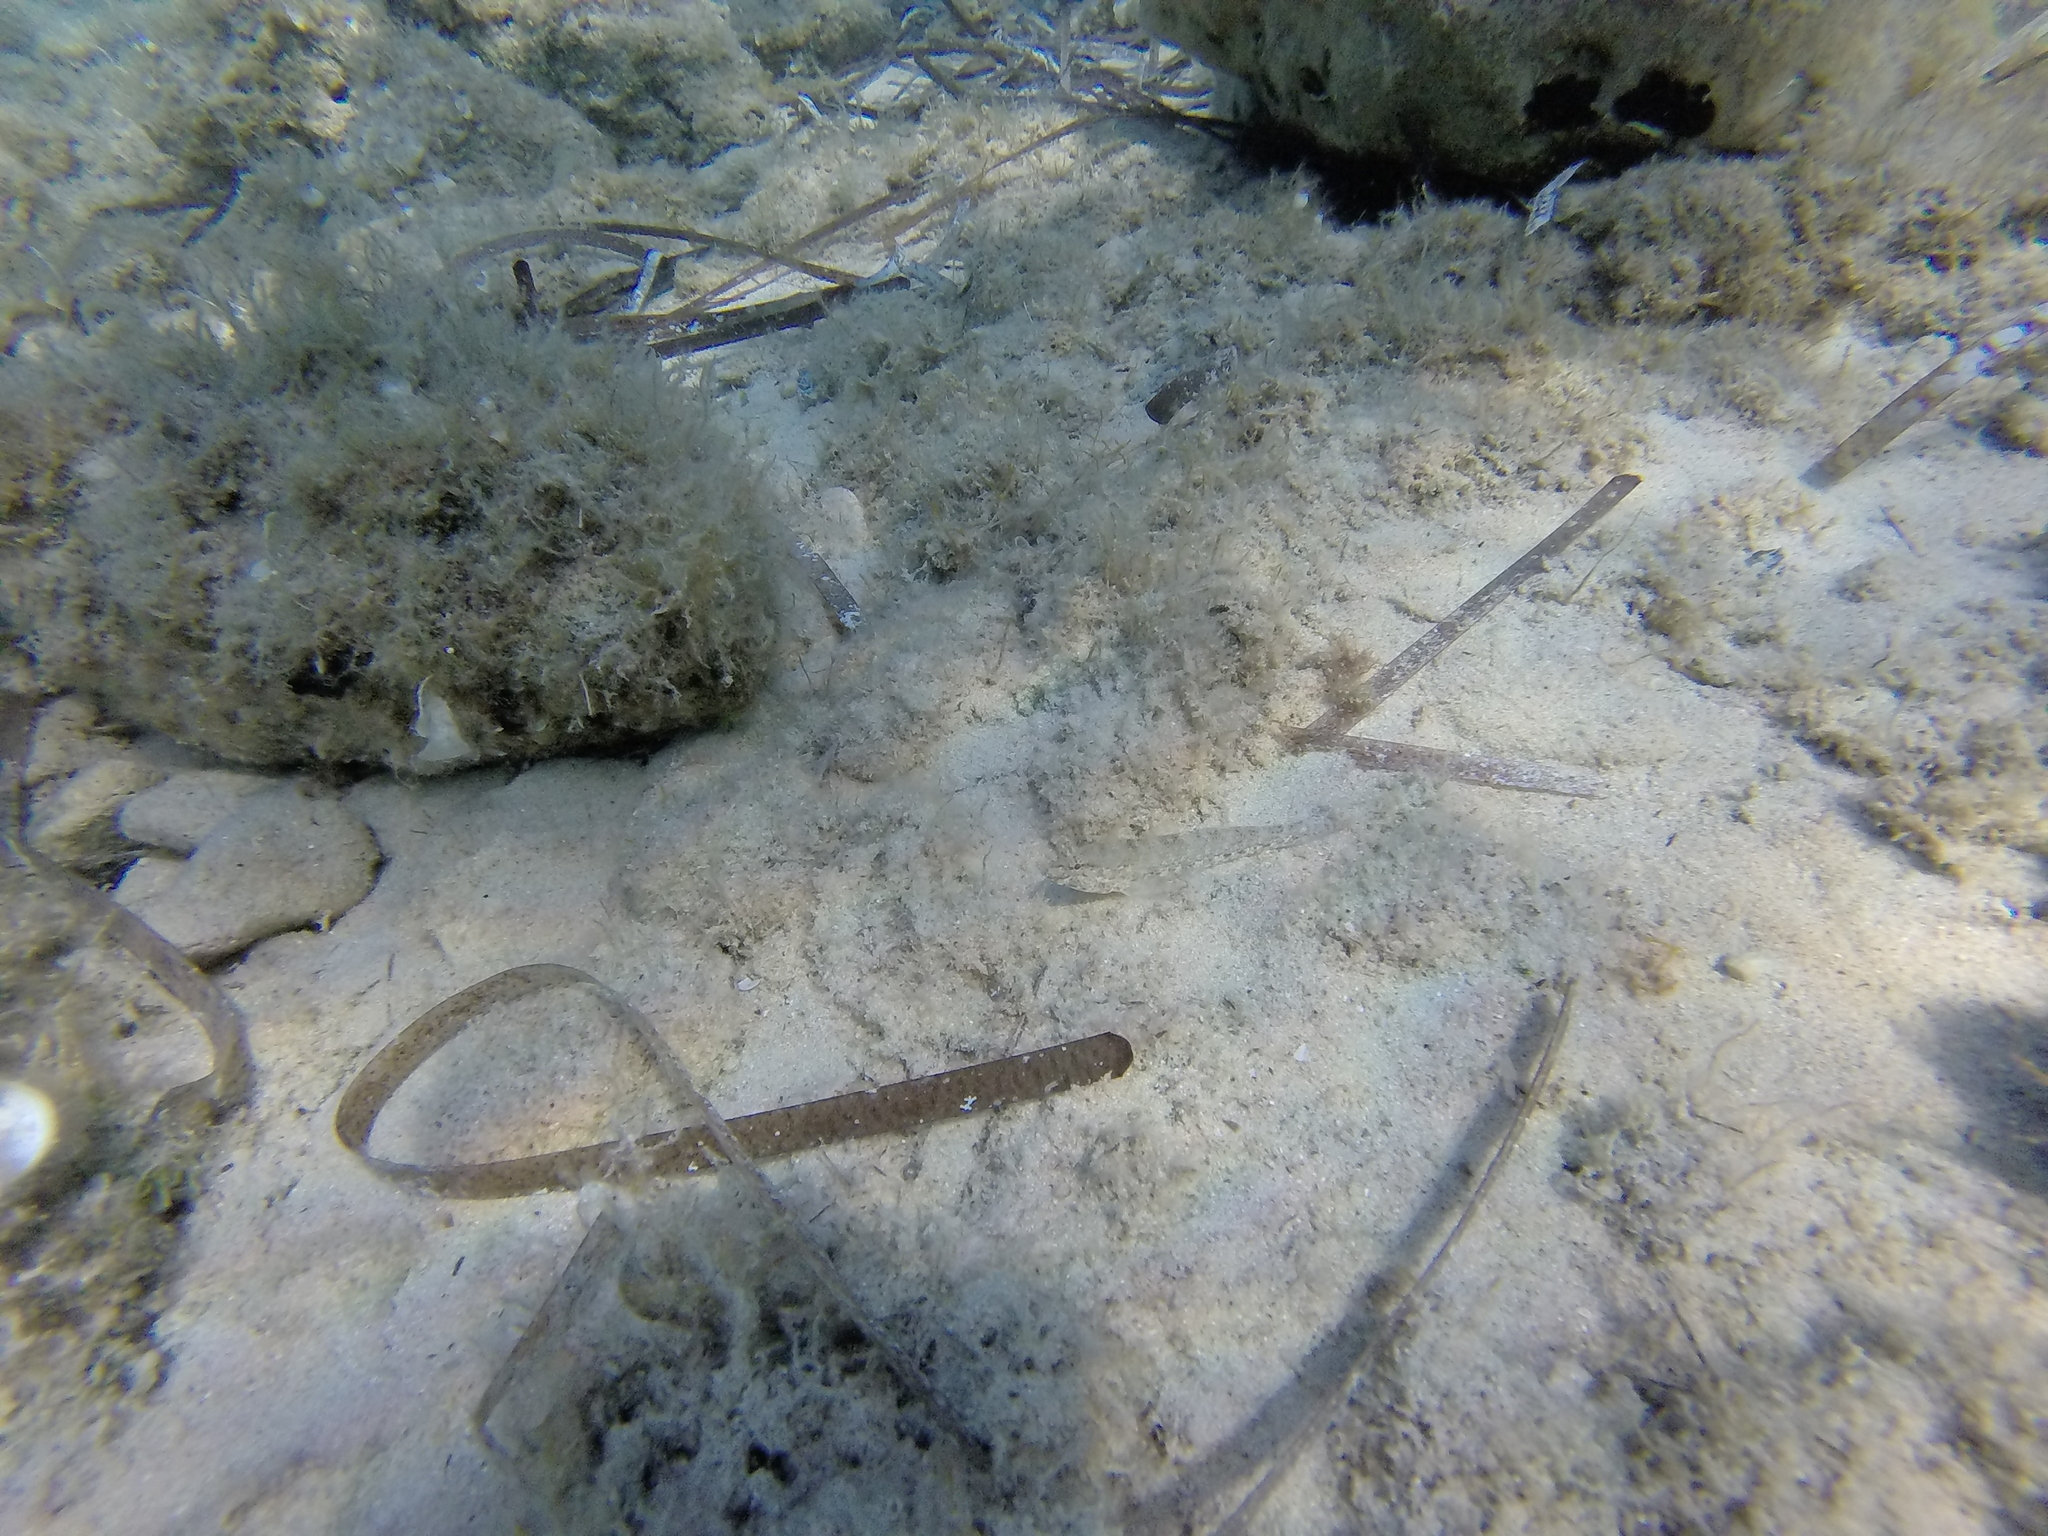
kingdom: Animalia
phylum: Chordata
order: Perciformes
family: Gobiidae
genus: Gobius
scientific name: Gobius incognitus
